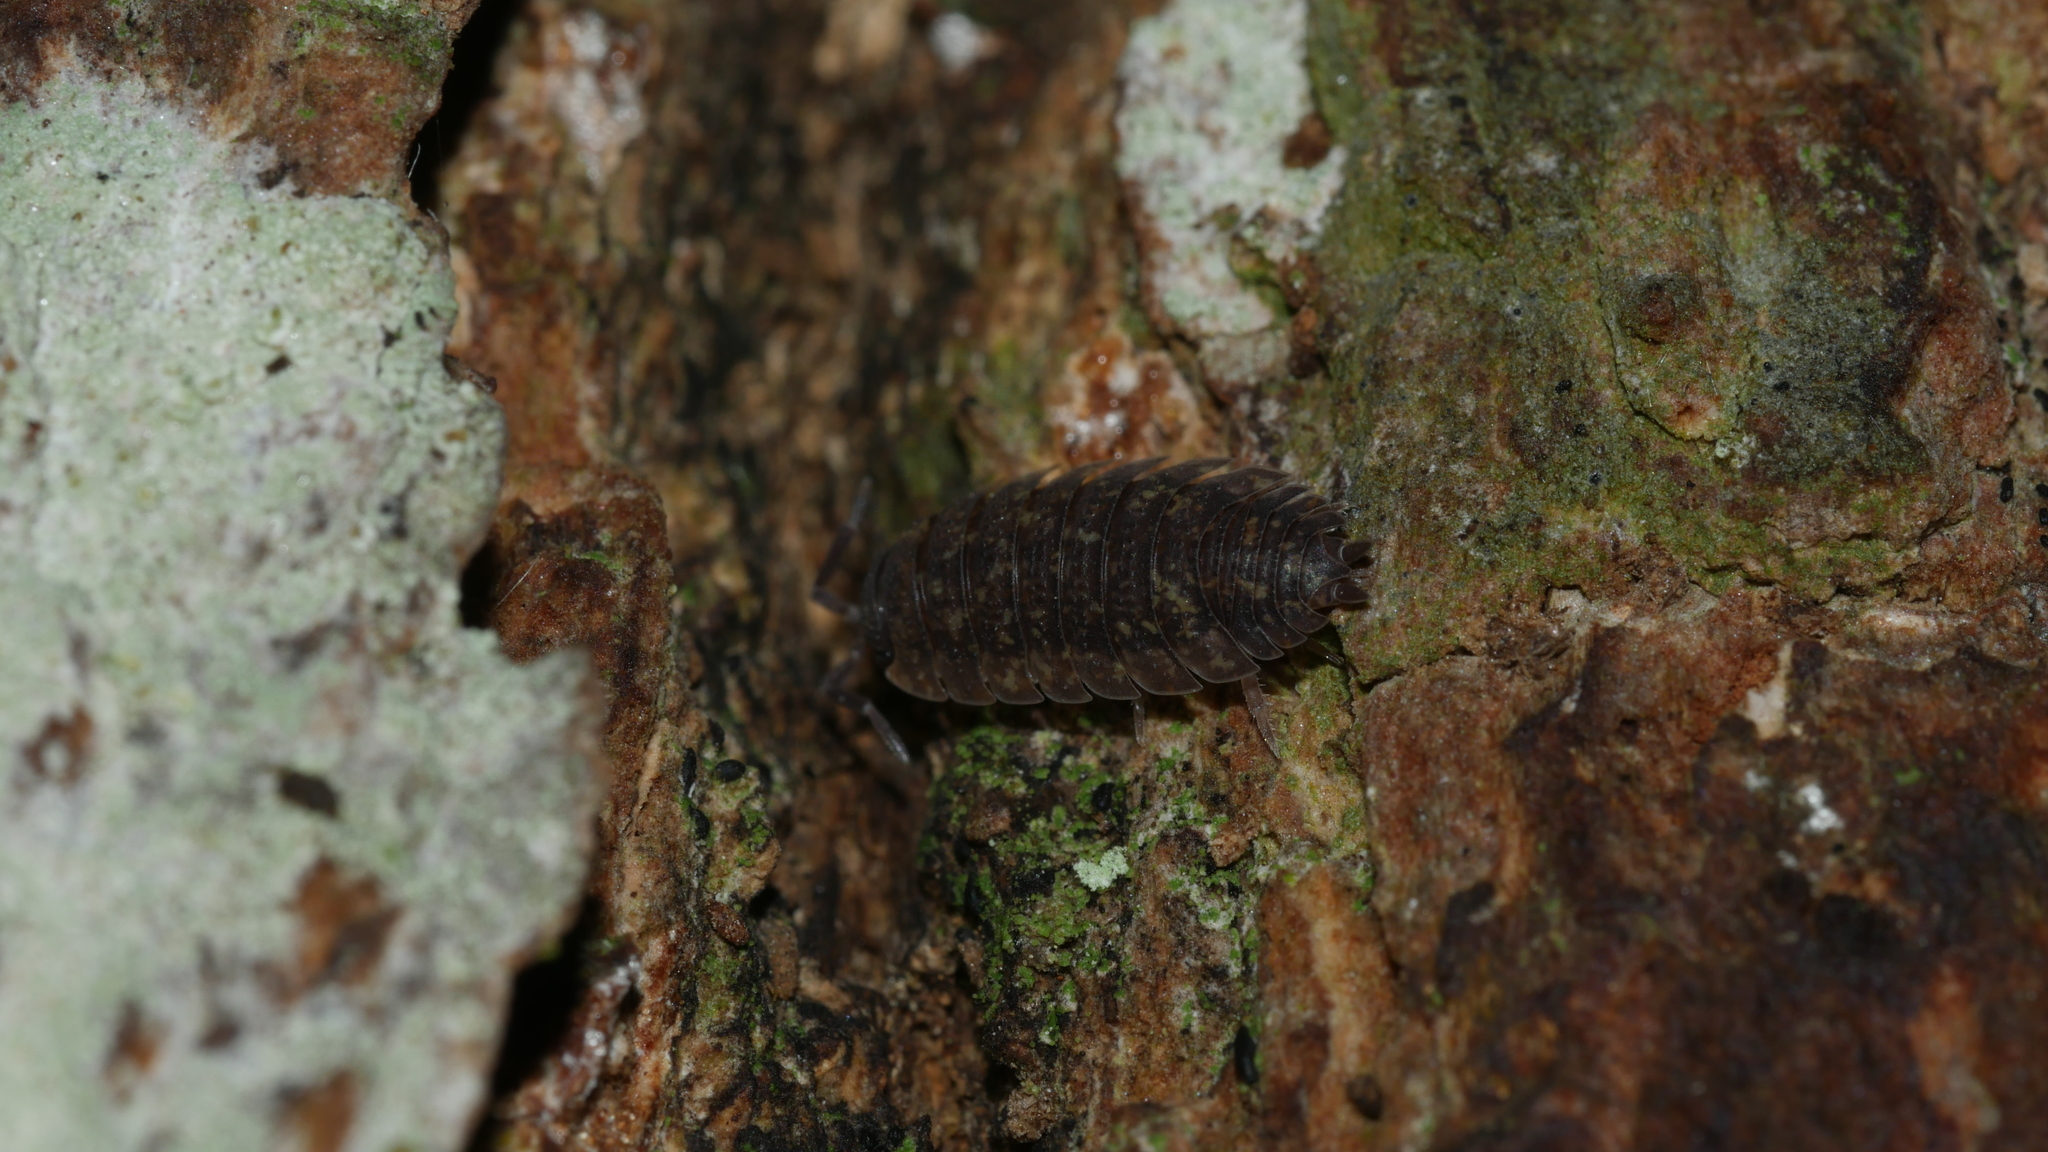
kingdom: Animalia
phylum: Arthropoda
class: Malacostraca
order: Isopoda
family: Porcellionidae
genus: Porcellio
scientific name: Porcellio scaber
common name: Common rough woodlouse
